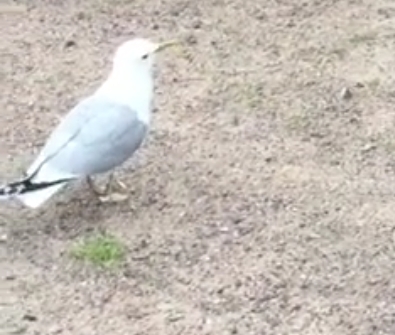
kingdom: Animalia
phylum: Chordata
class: Aves
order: Charadriiformes
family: Laridae
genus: Larus
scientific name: Larus canus
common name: Mew gull
